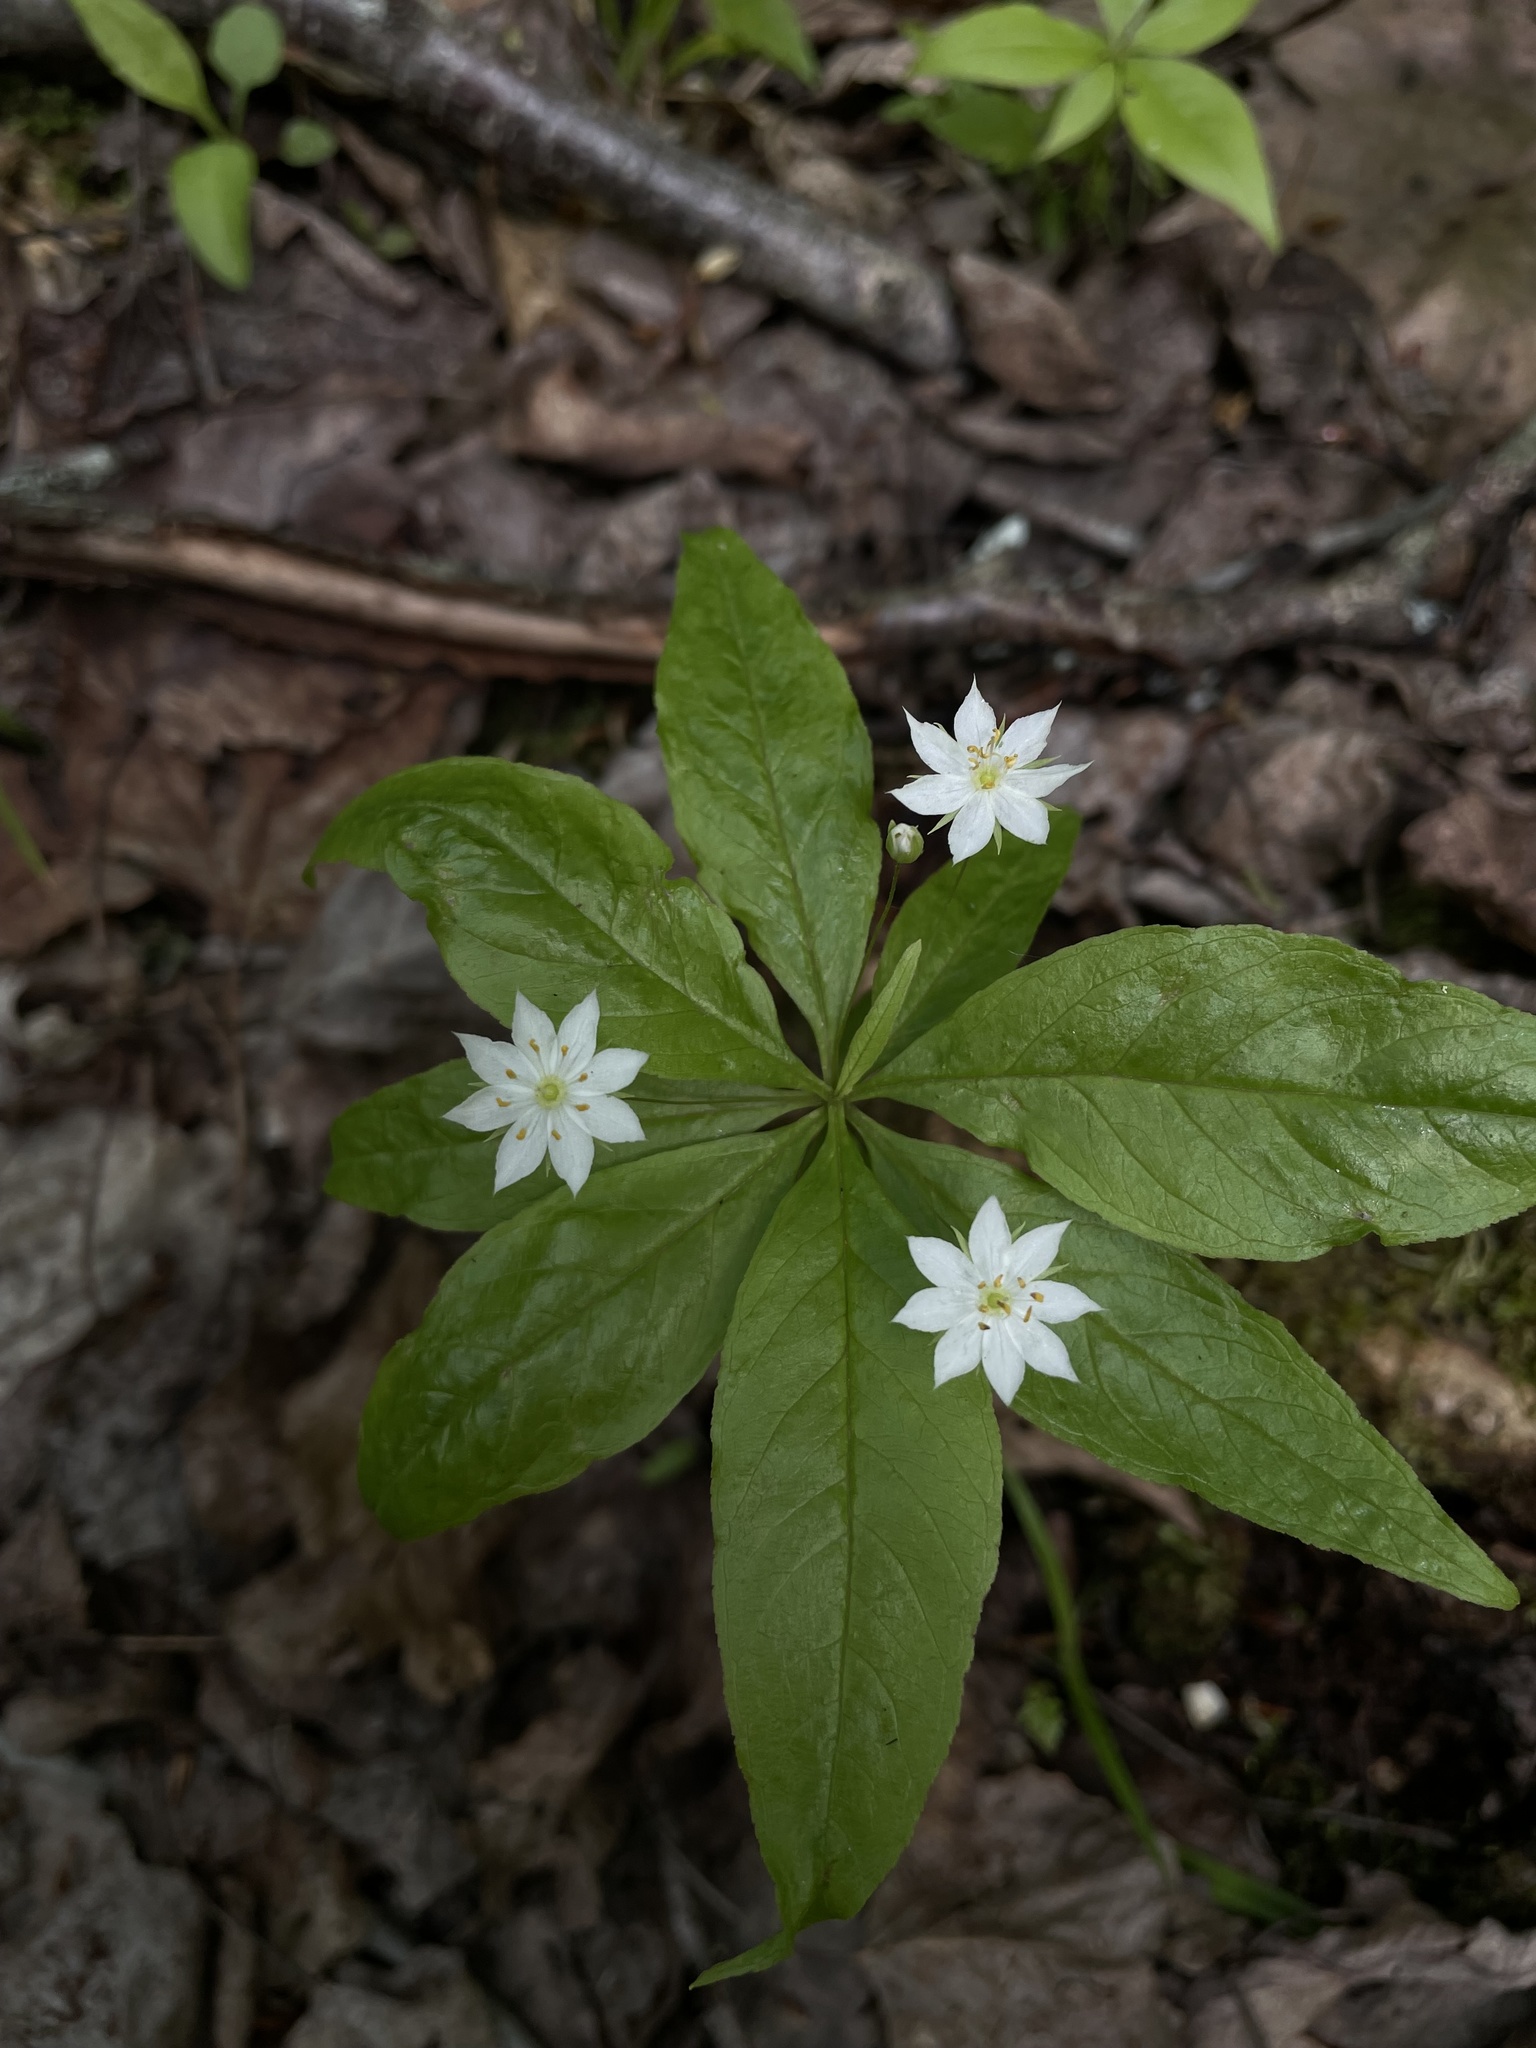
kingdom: Plantae
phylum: Tracheophyta
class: Magnoliopsida
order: Ericales
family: Primulaceae
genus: Lysimachia
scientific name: Lysimachia borealis
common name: American starflower
